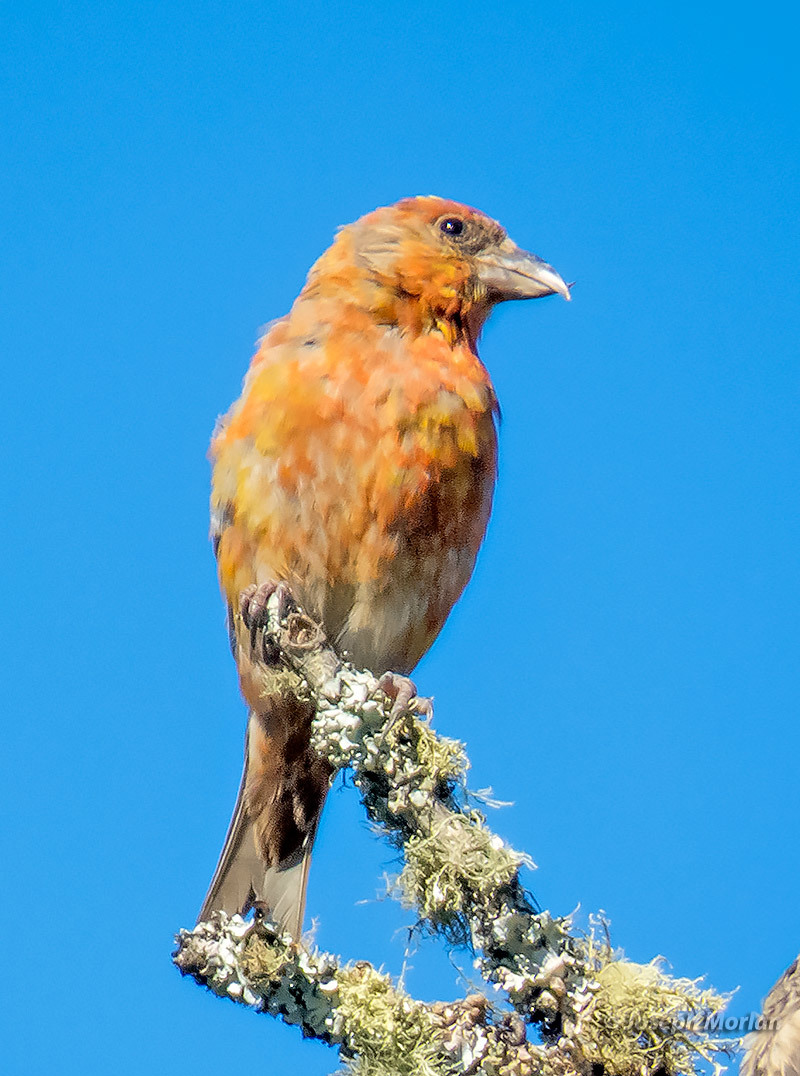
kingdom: Animalia
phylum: Chordata
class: Aves
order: Passeriformes
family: Fringillidae
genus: Loxia
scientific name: Loxia curvirostra
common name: Red crossbill
